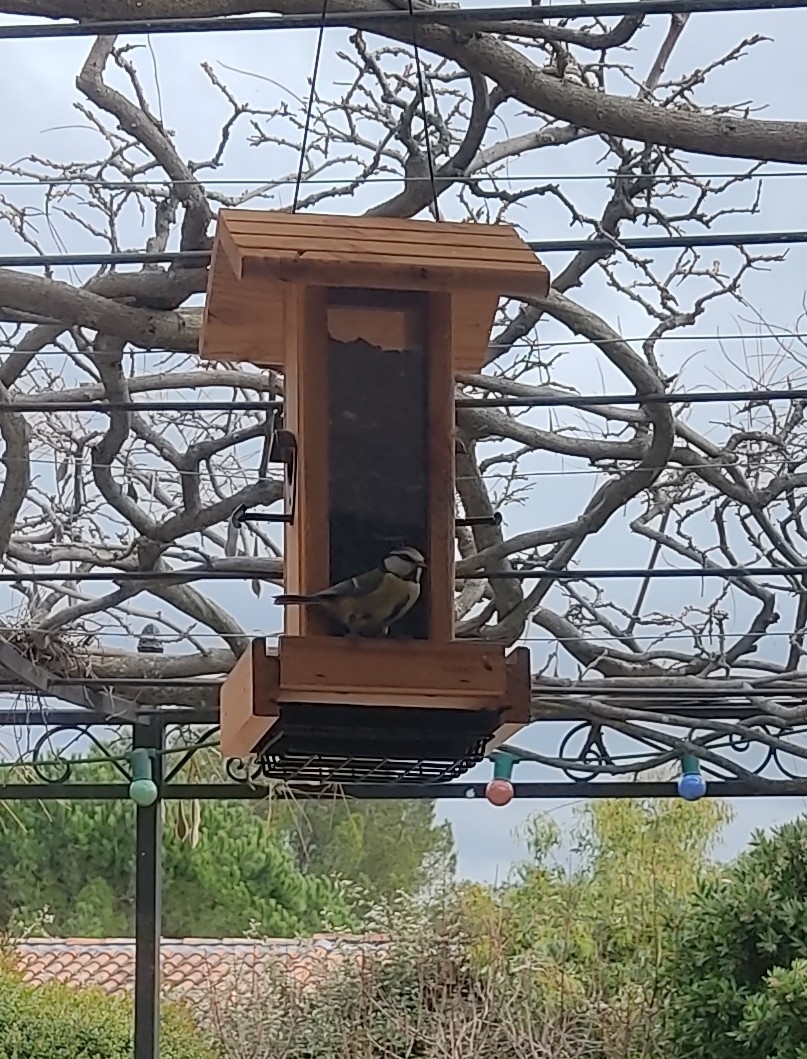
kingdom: Animalia
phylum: Chordata
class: Aves
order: Passeriformes
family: Paridae
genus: Cyanistes
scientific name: Cyanistes caeruleus
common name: Eurasian blue tit
